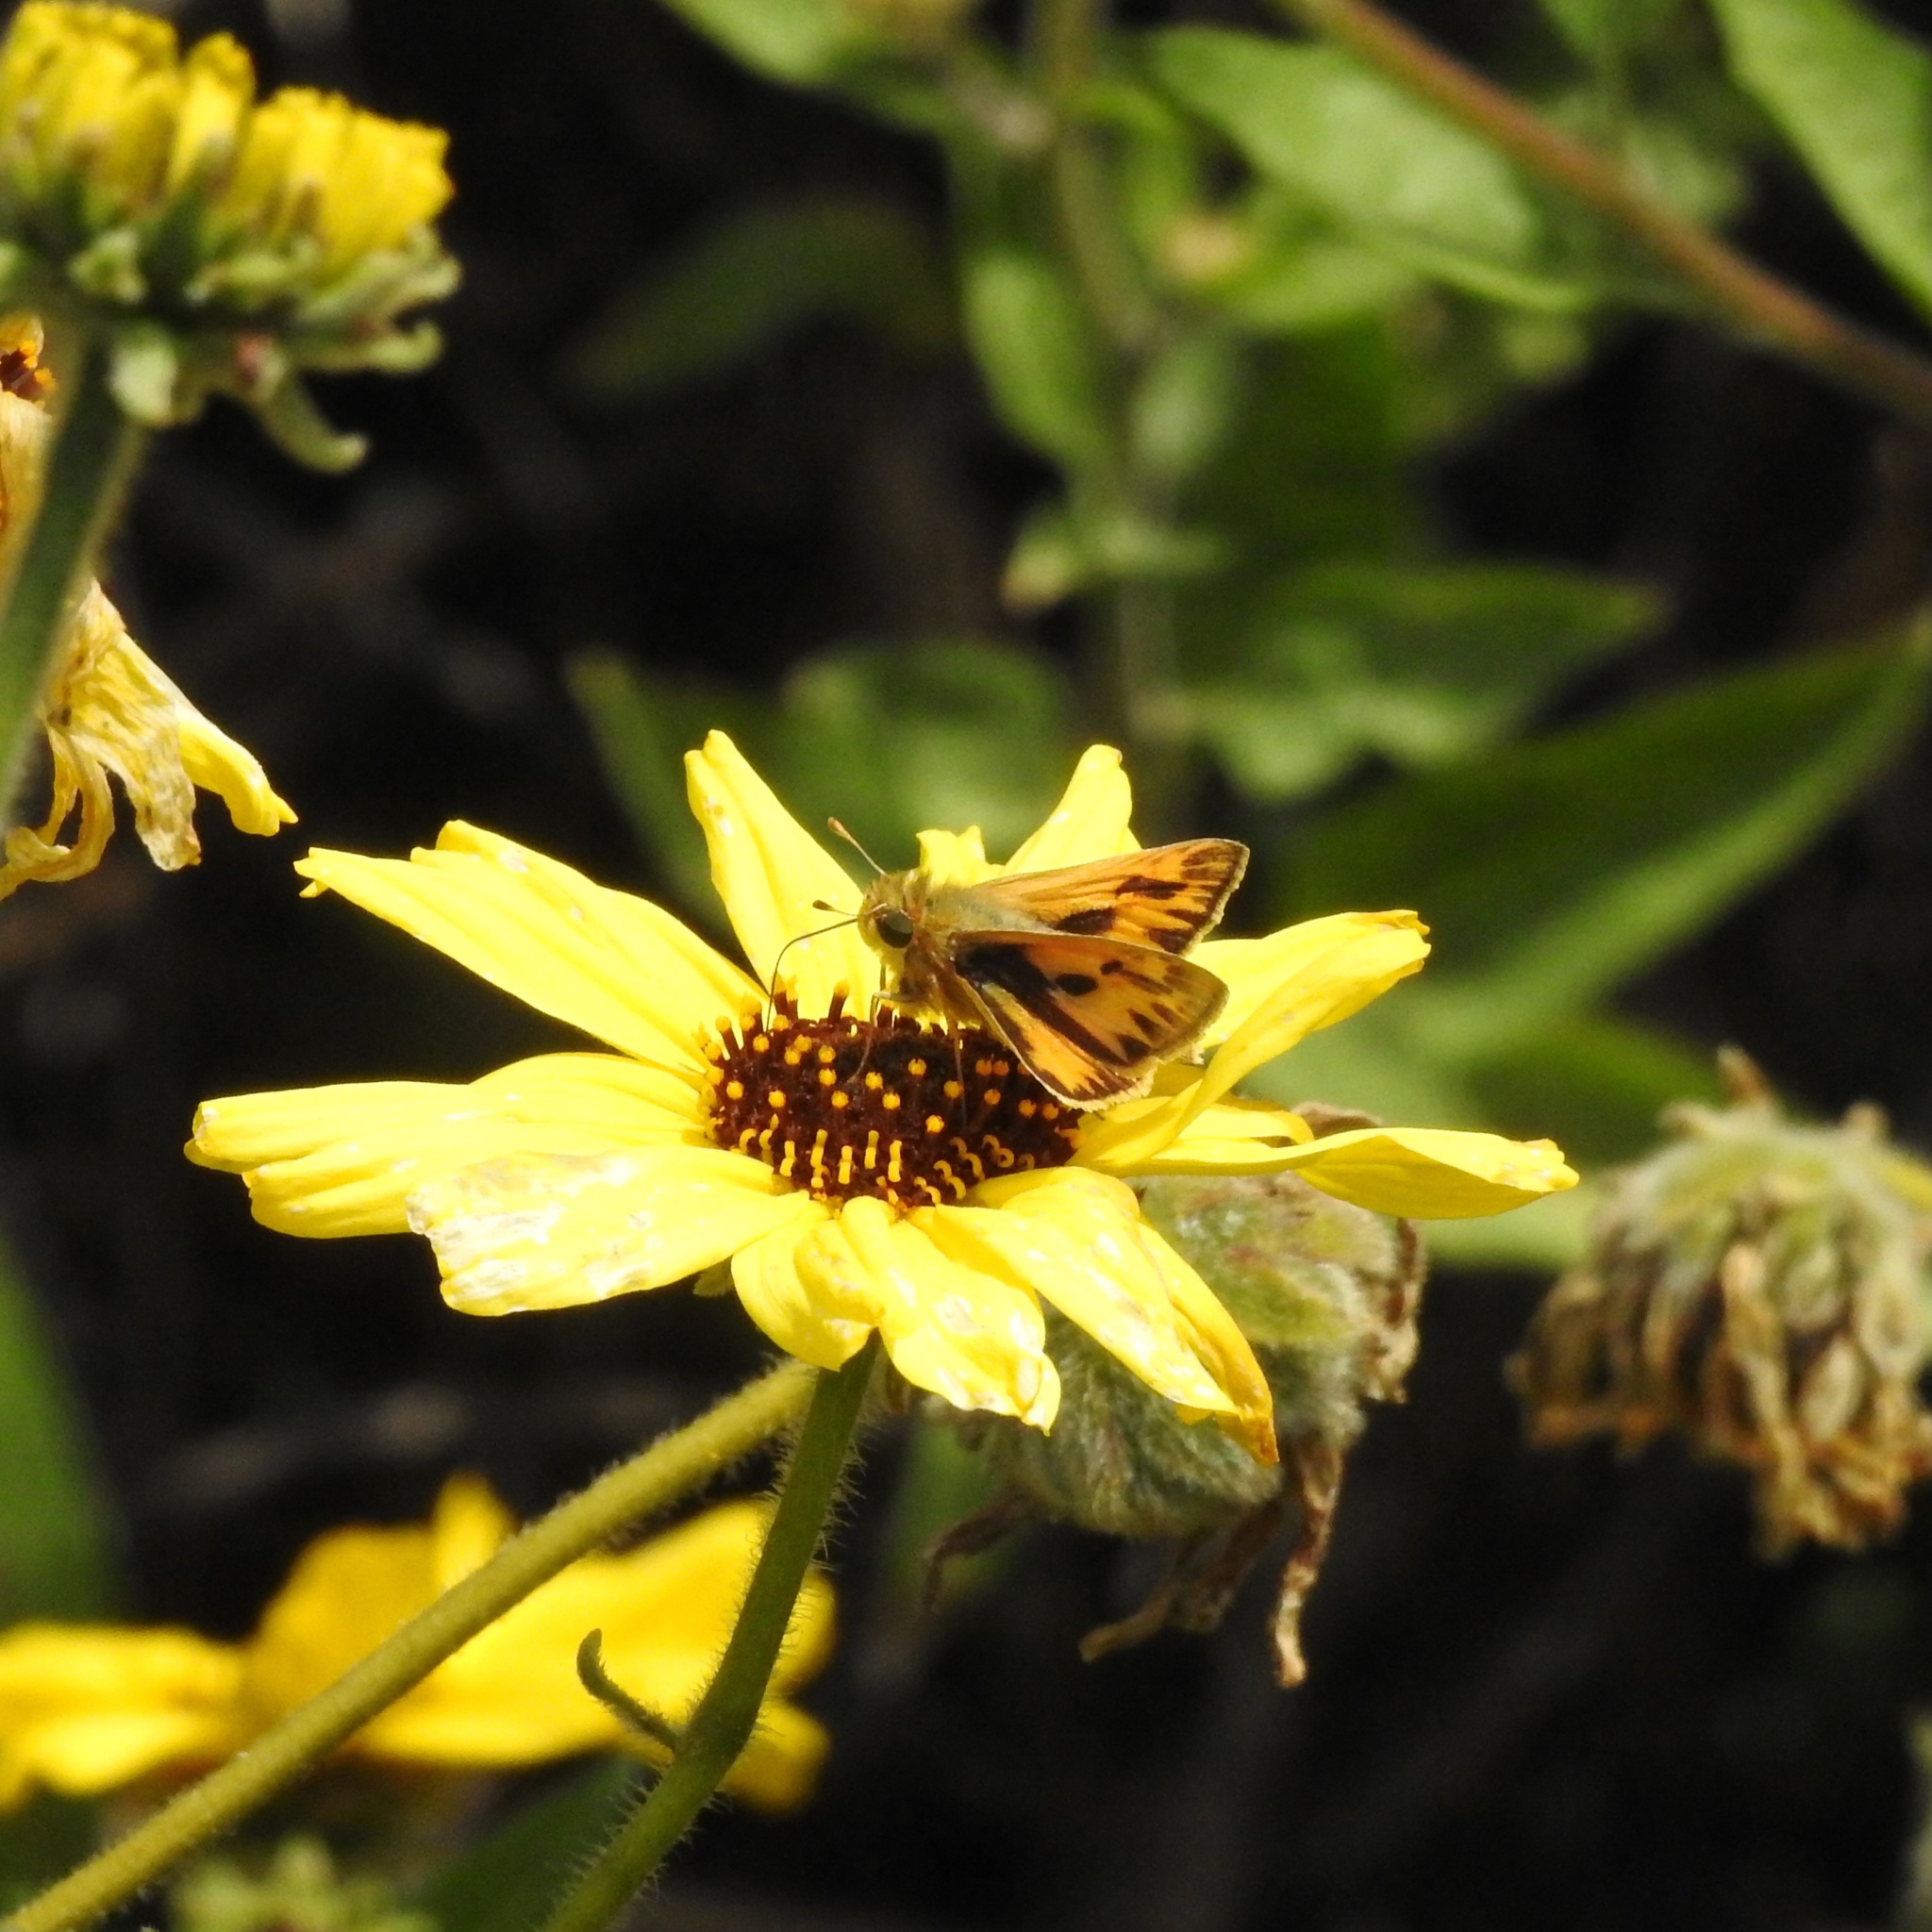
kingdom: Animalia
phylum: Arthropoda
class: Insecta
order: Lepidoptera
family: Hesperiidae
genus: Hylephila
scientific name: Hylephila phyleus
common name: Fiery skipper
